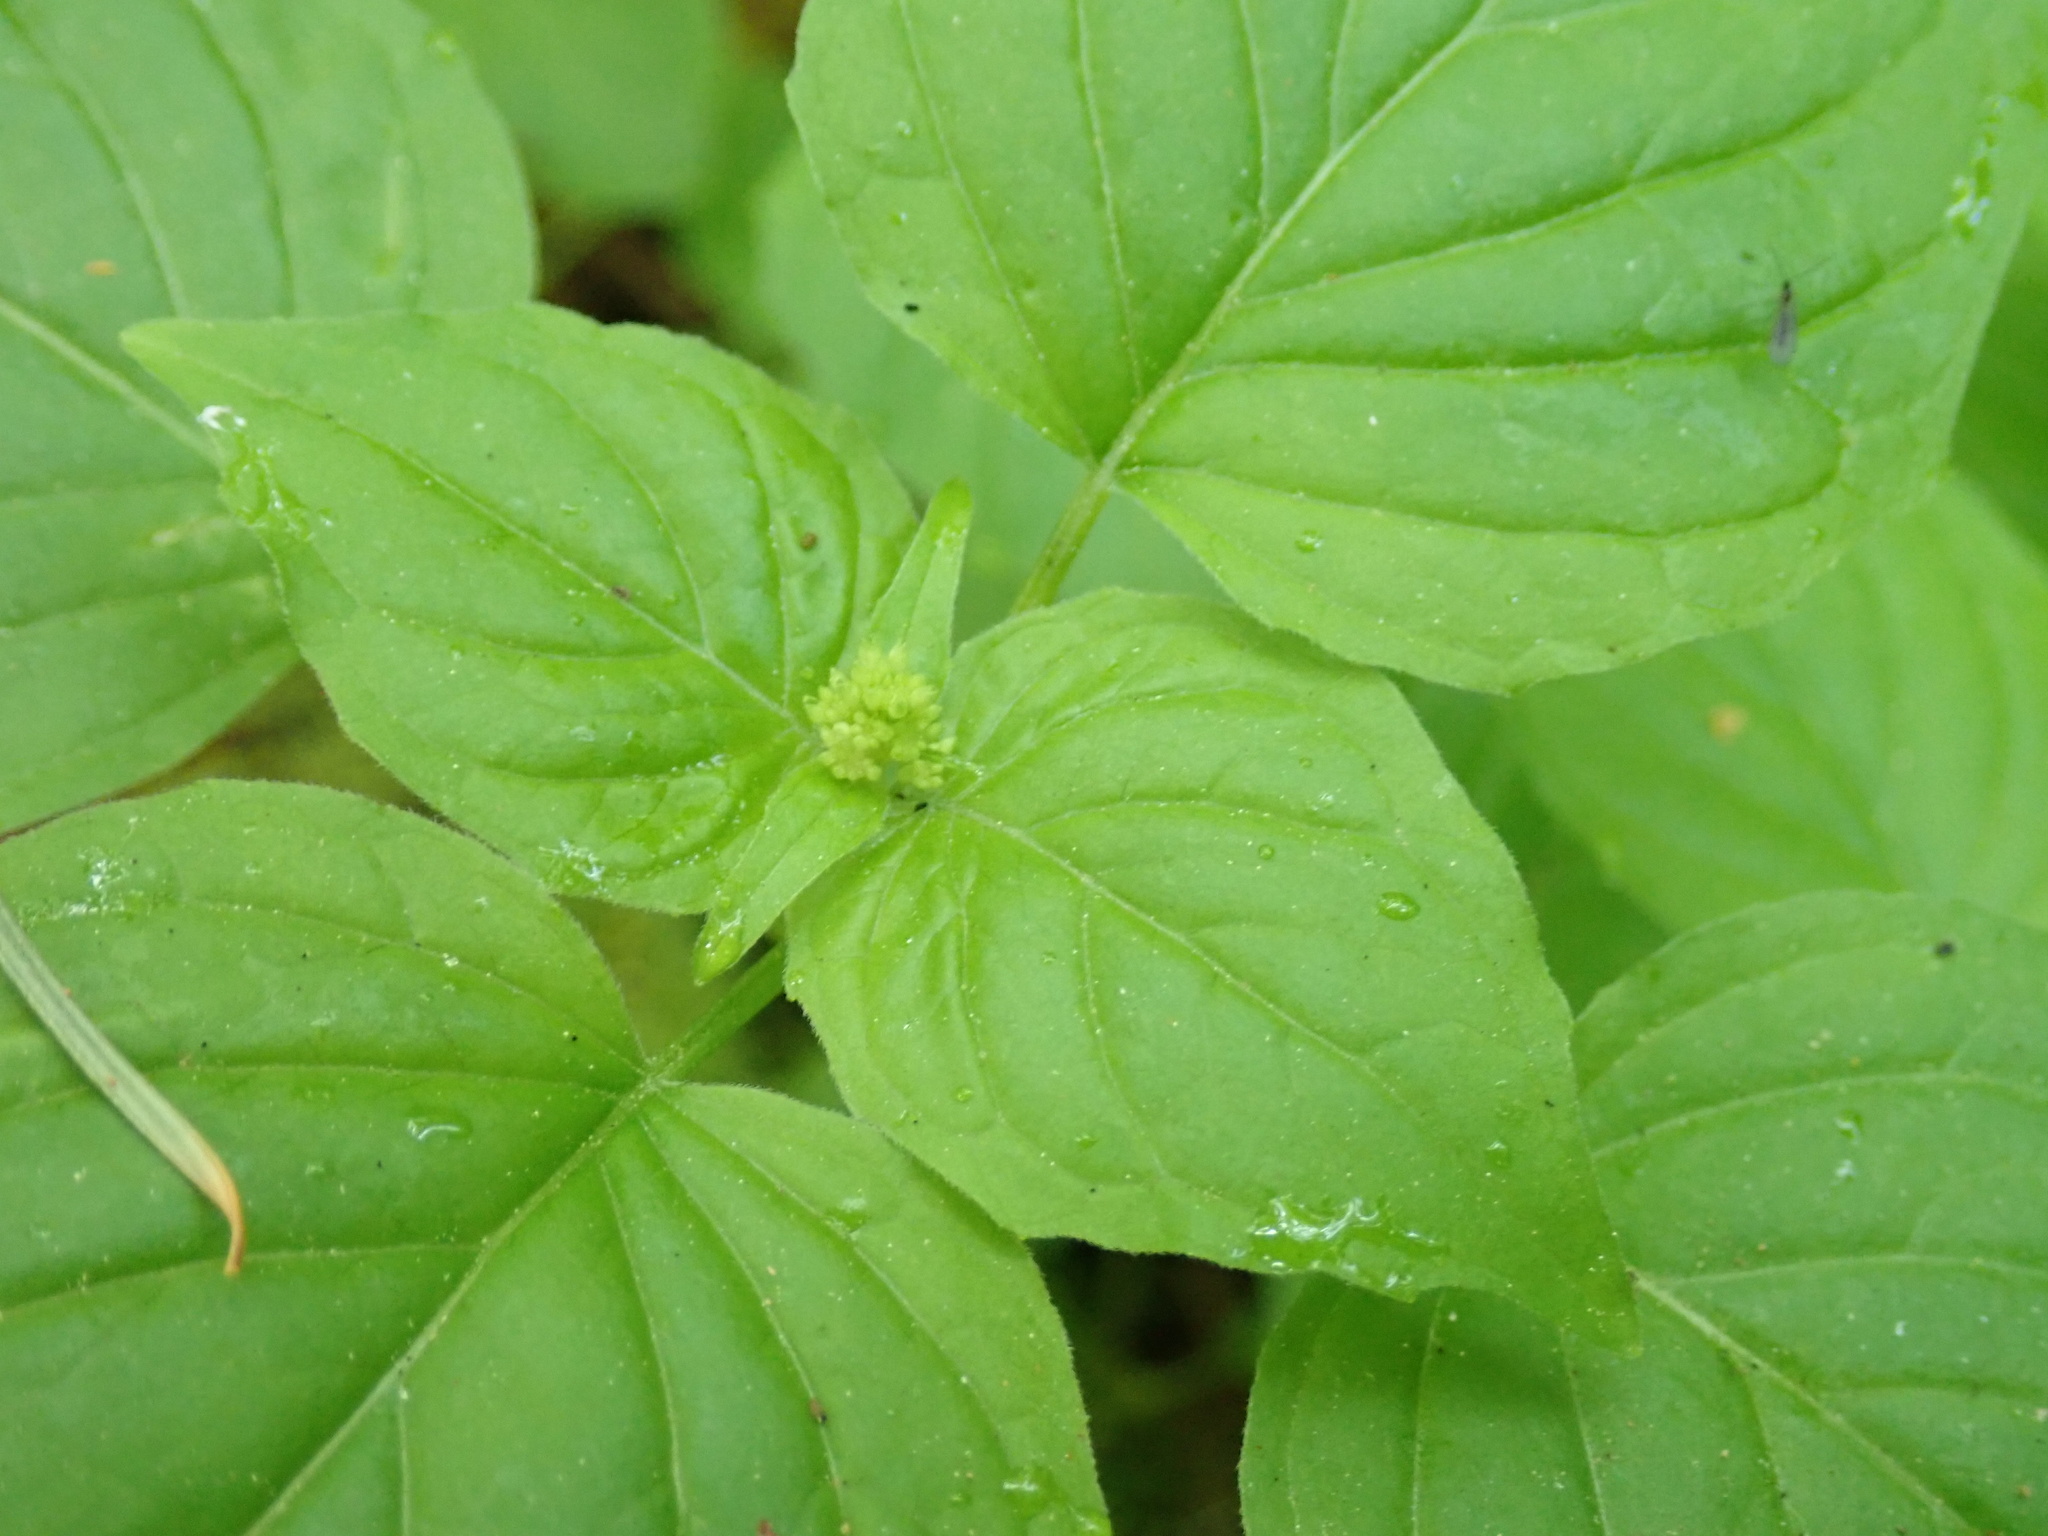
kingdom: Plantae
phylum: Tracheophyta
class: Magnoliopsida
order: Myrtales
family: Onagraceae
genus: Circaea
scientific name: Circaea alpina
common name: Alpine enchanter's-nightshade
